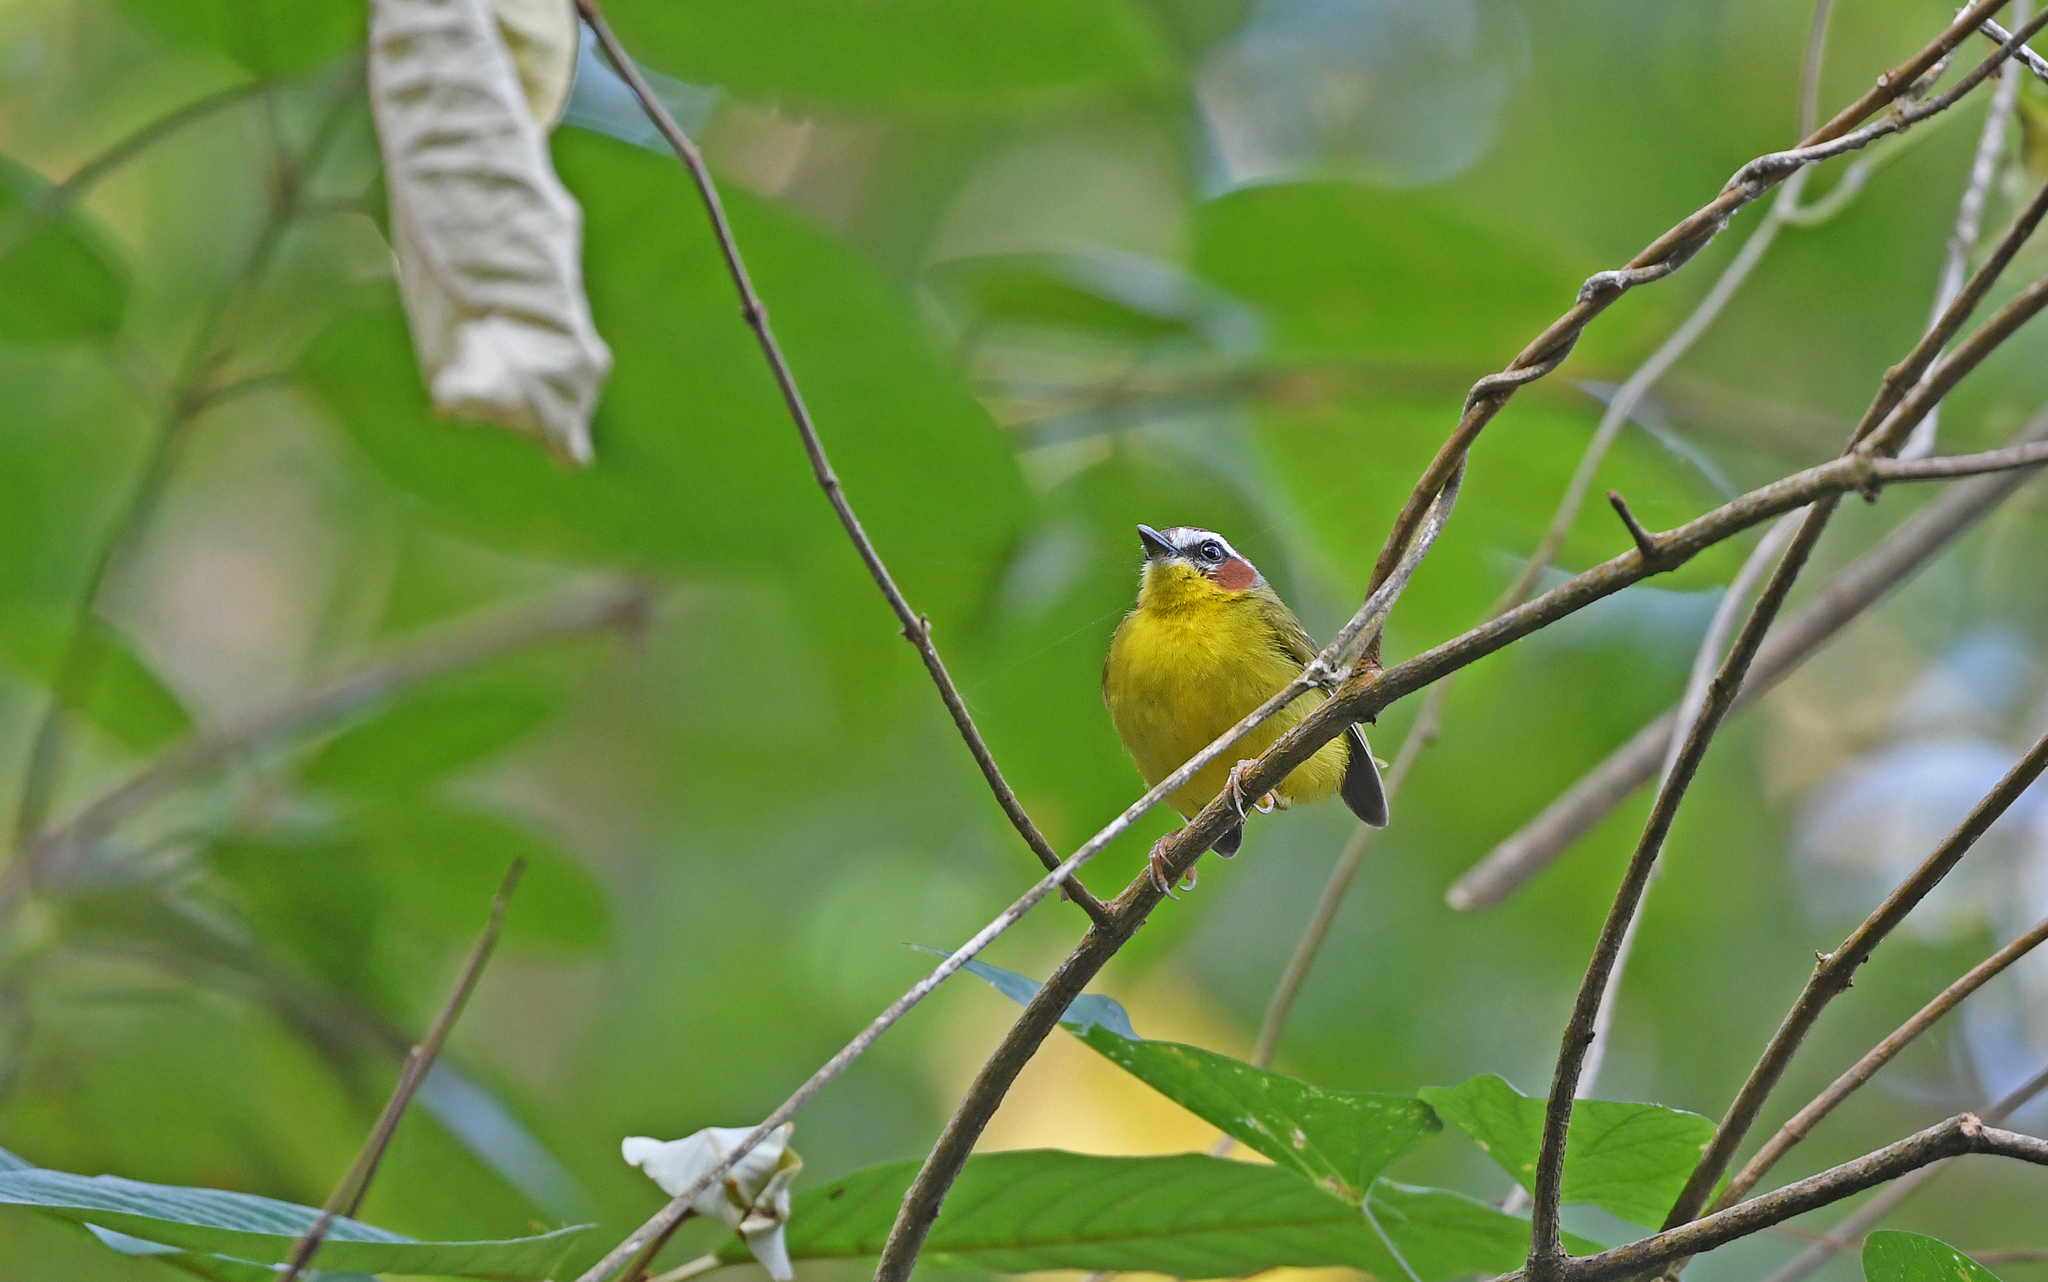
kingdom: Animalia
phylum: Chordata
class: Aves
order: Passeriformes
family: Parulidae
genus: Basileuterus
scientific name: Basileuterus rufifrons
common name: Rufous-capped warbler
